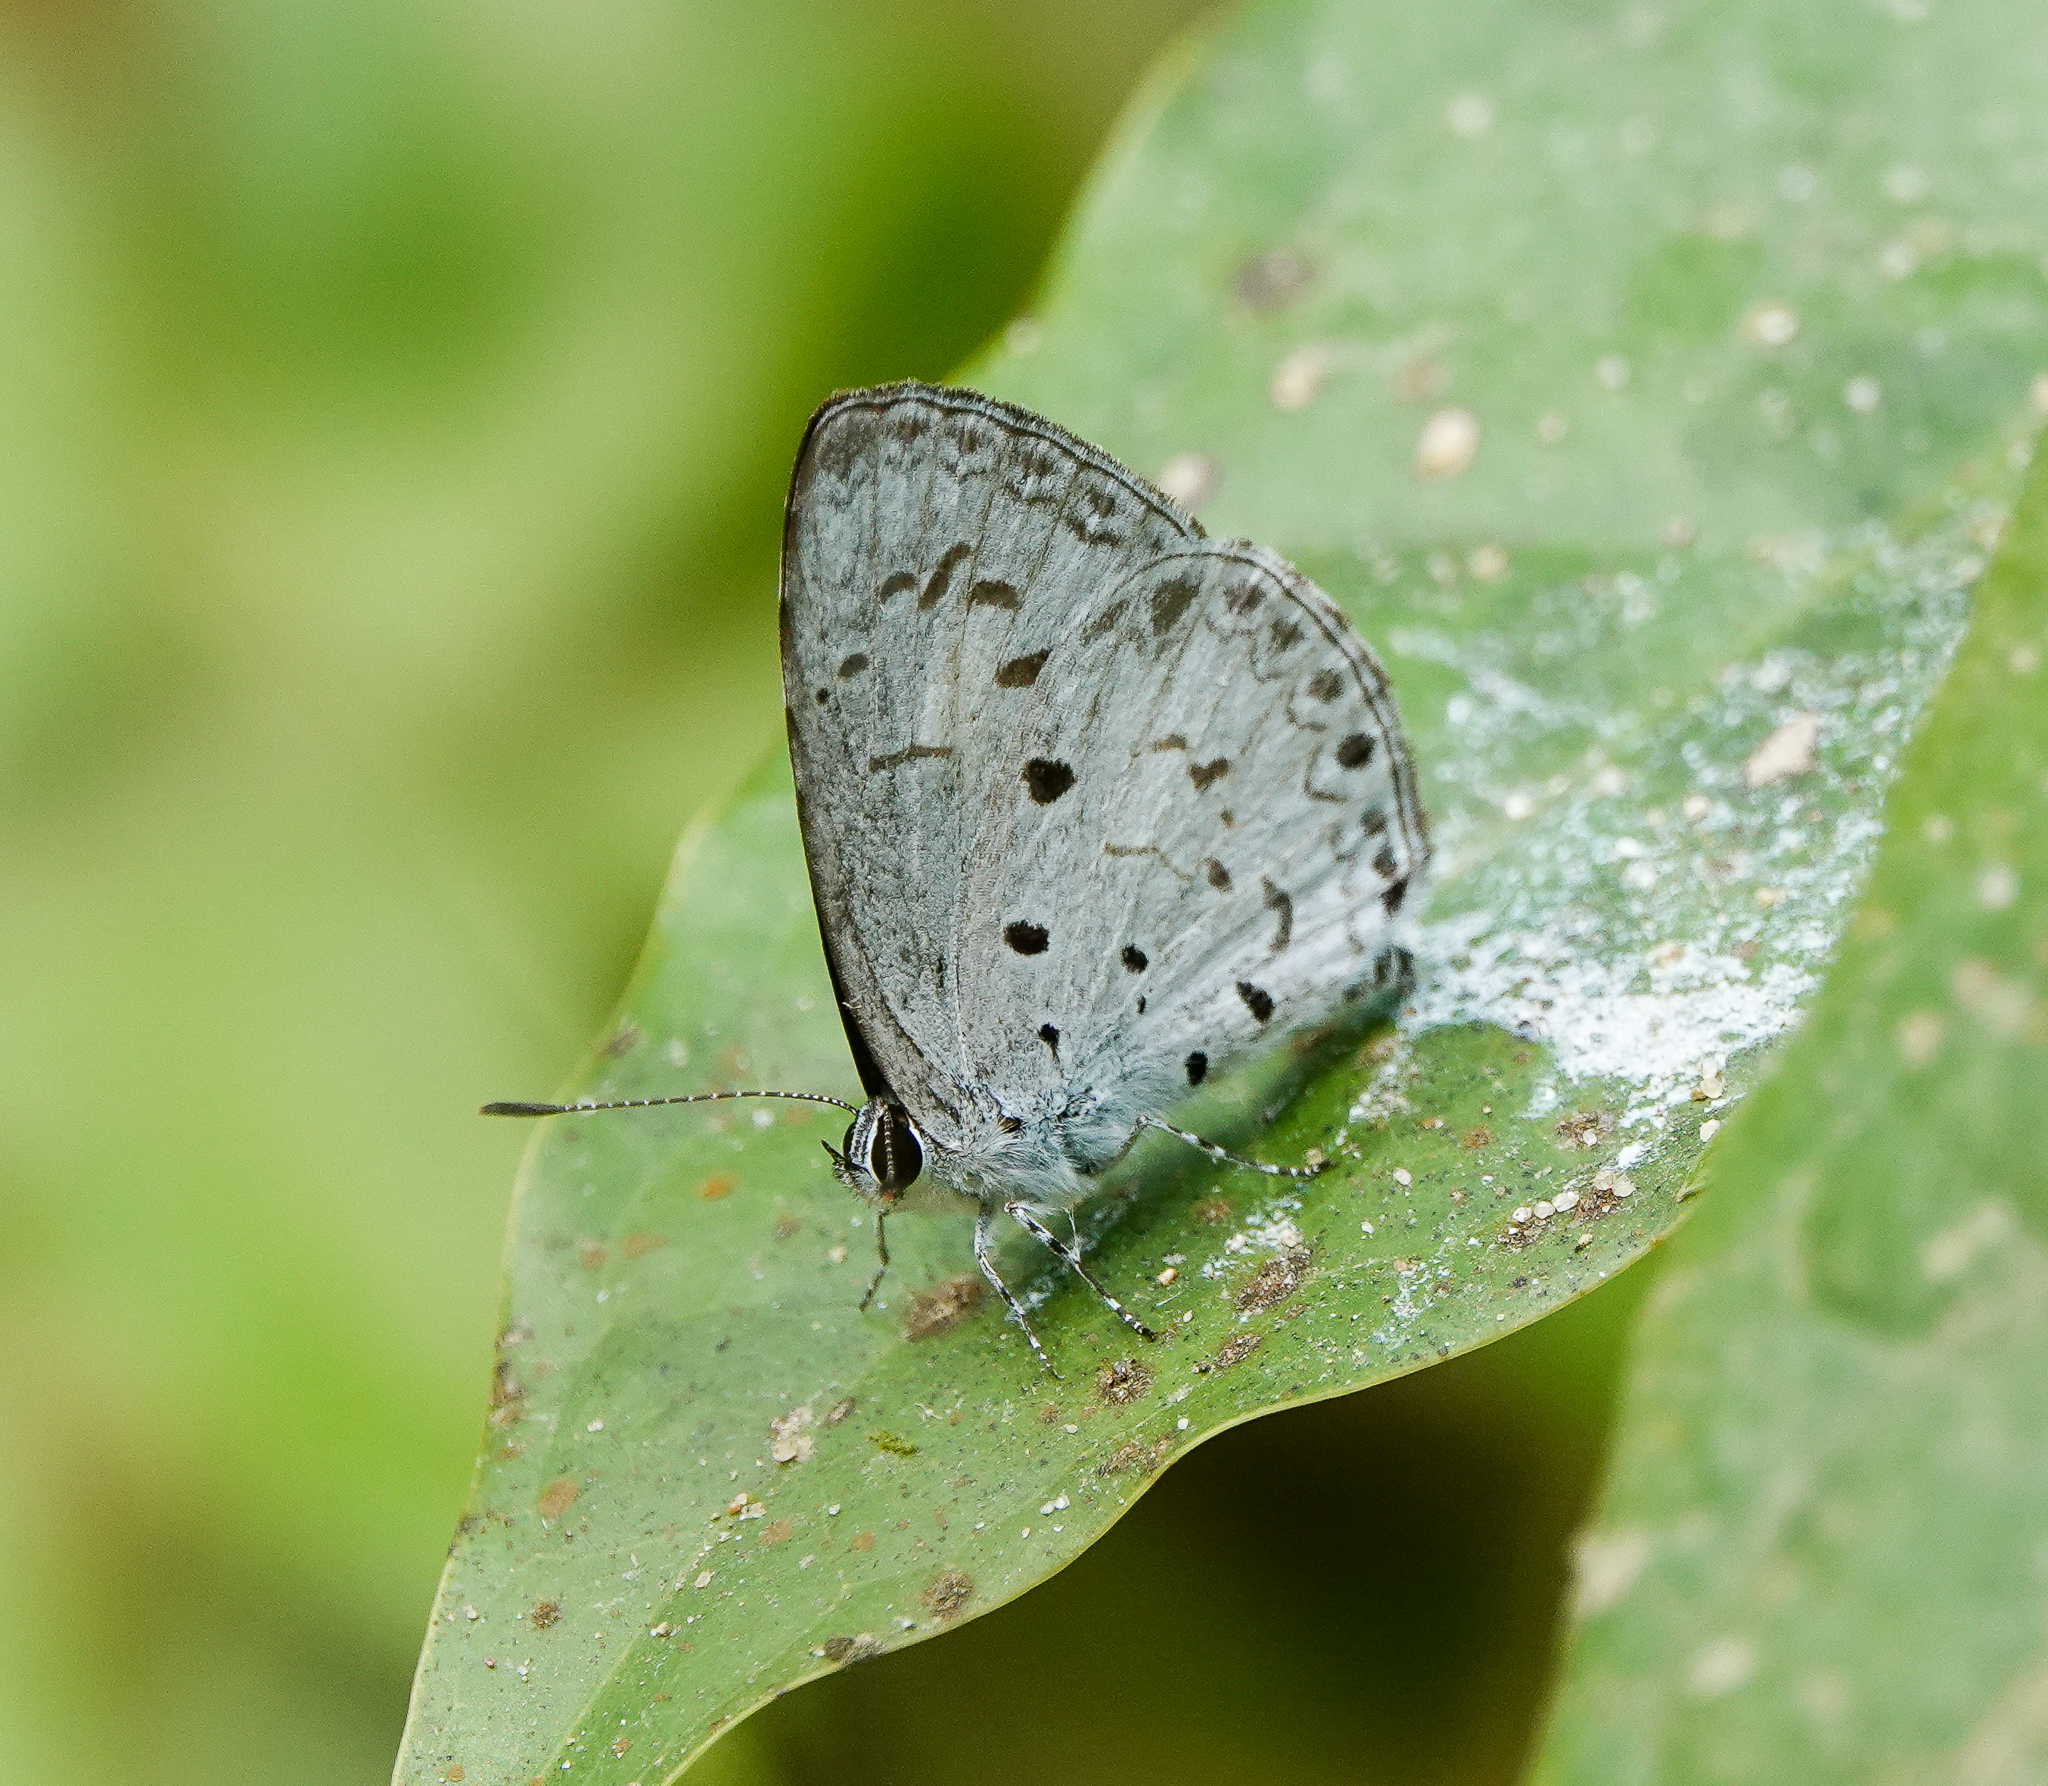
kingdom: Animalia
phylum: Arthropoda
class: Insecta
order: Lepidoptera
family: Lycaenidae
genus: Acytolepis
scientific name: Acytolepis puspa
